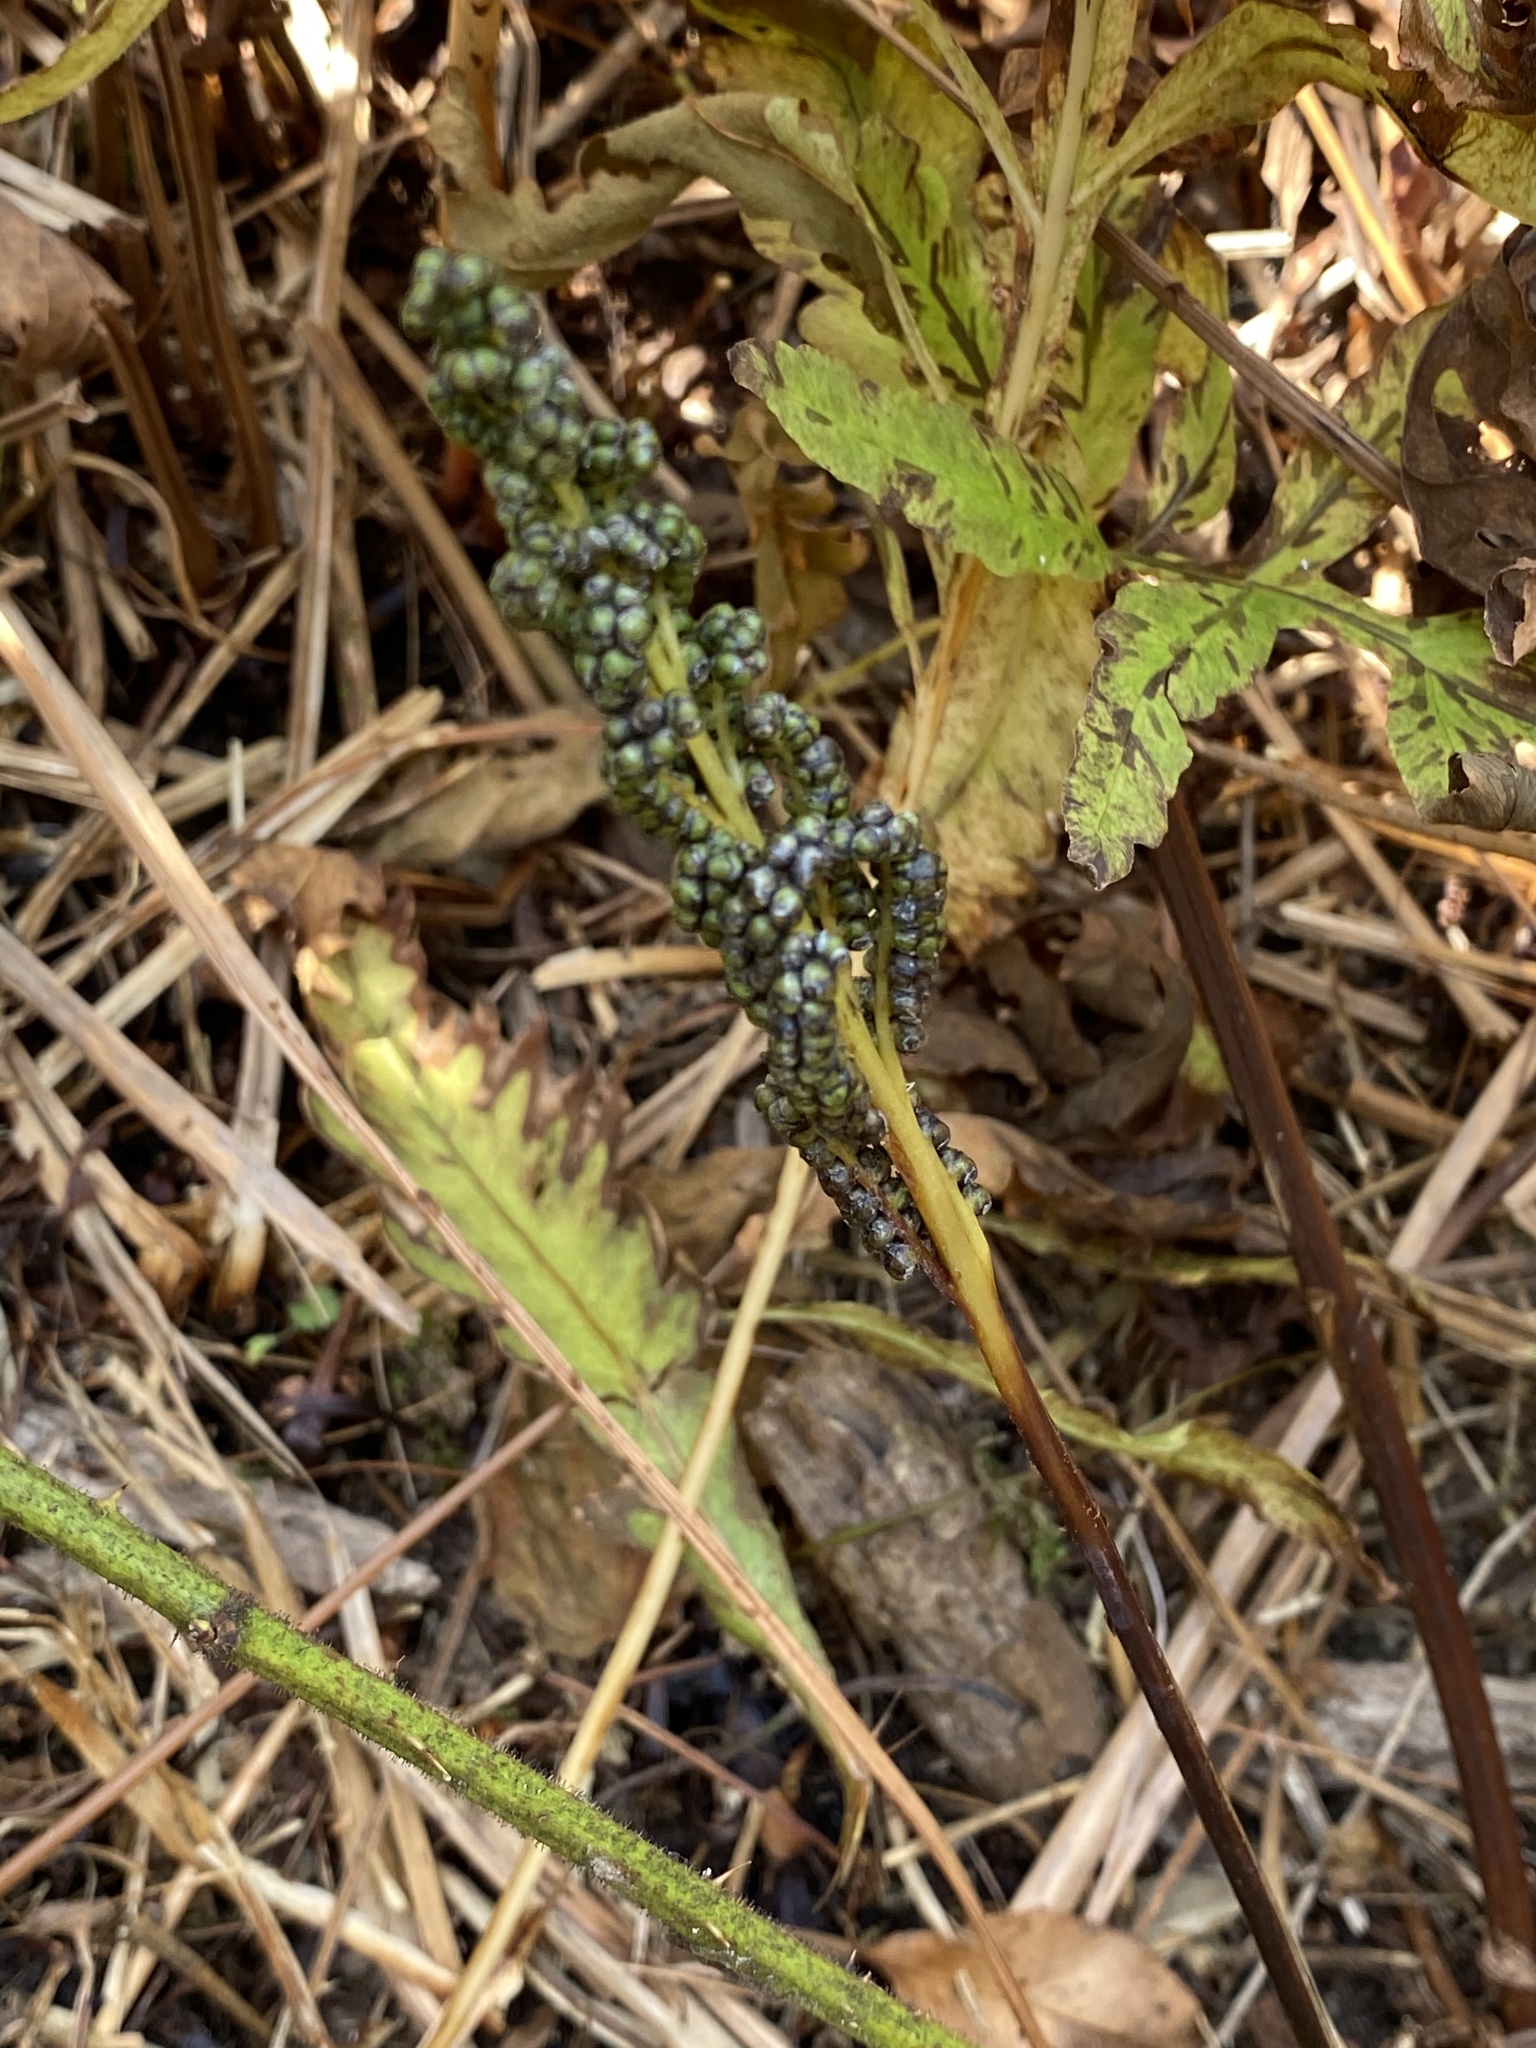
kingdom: Plantae
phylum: Tracheophyta
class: Polypodiopsida
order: Polypodiales
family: Onocleaceae
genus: Onoclea
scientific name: Onoclea sensibilis
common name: Sensitive fern
